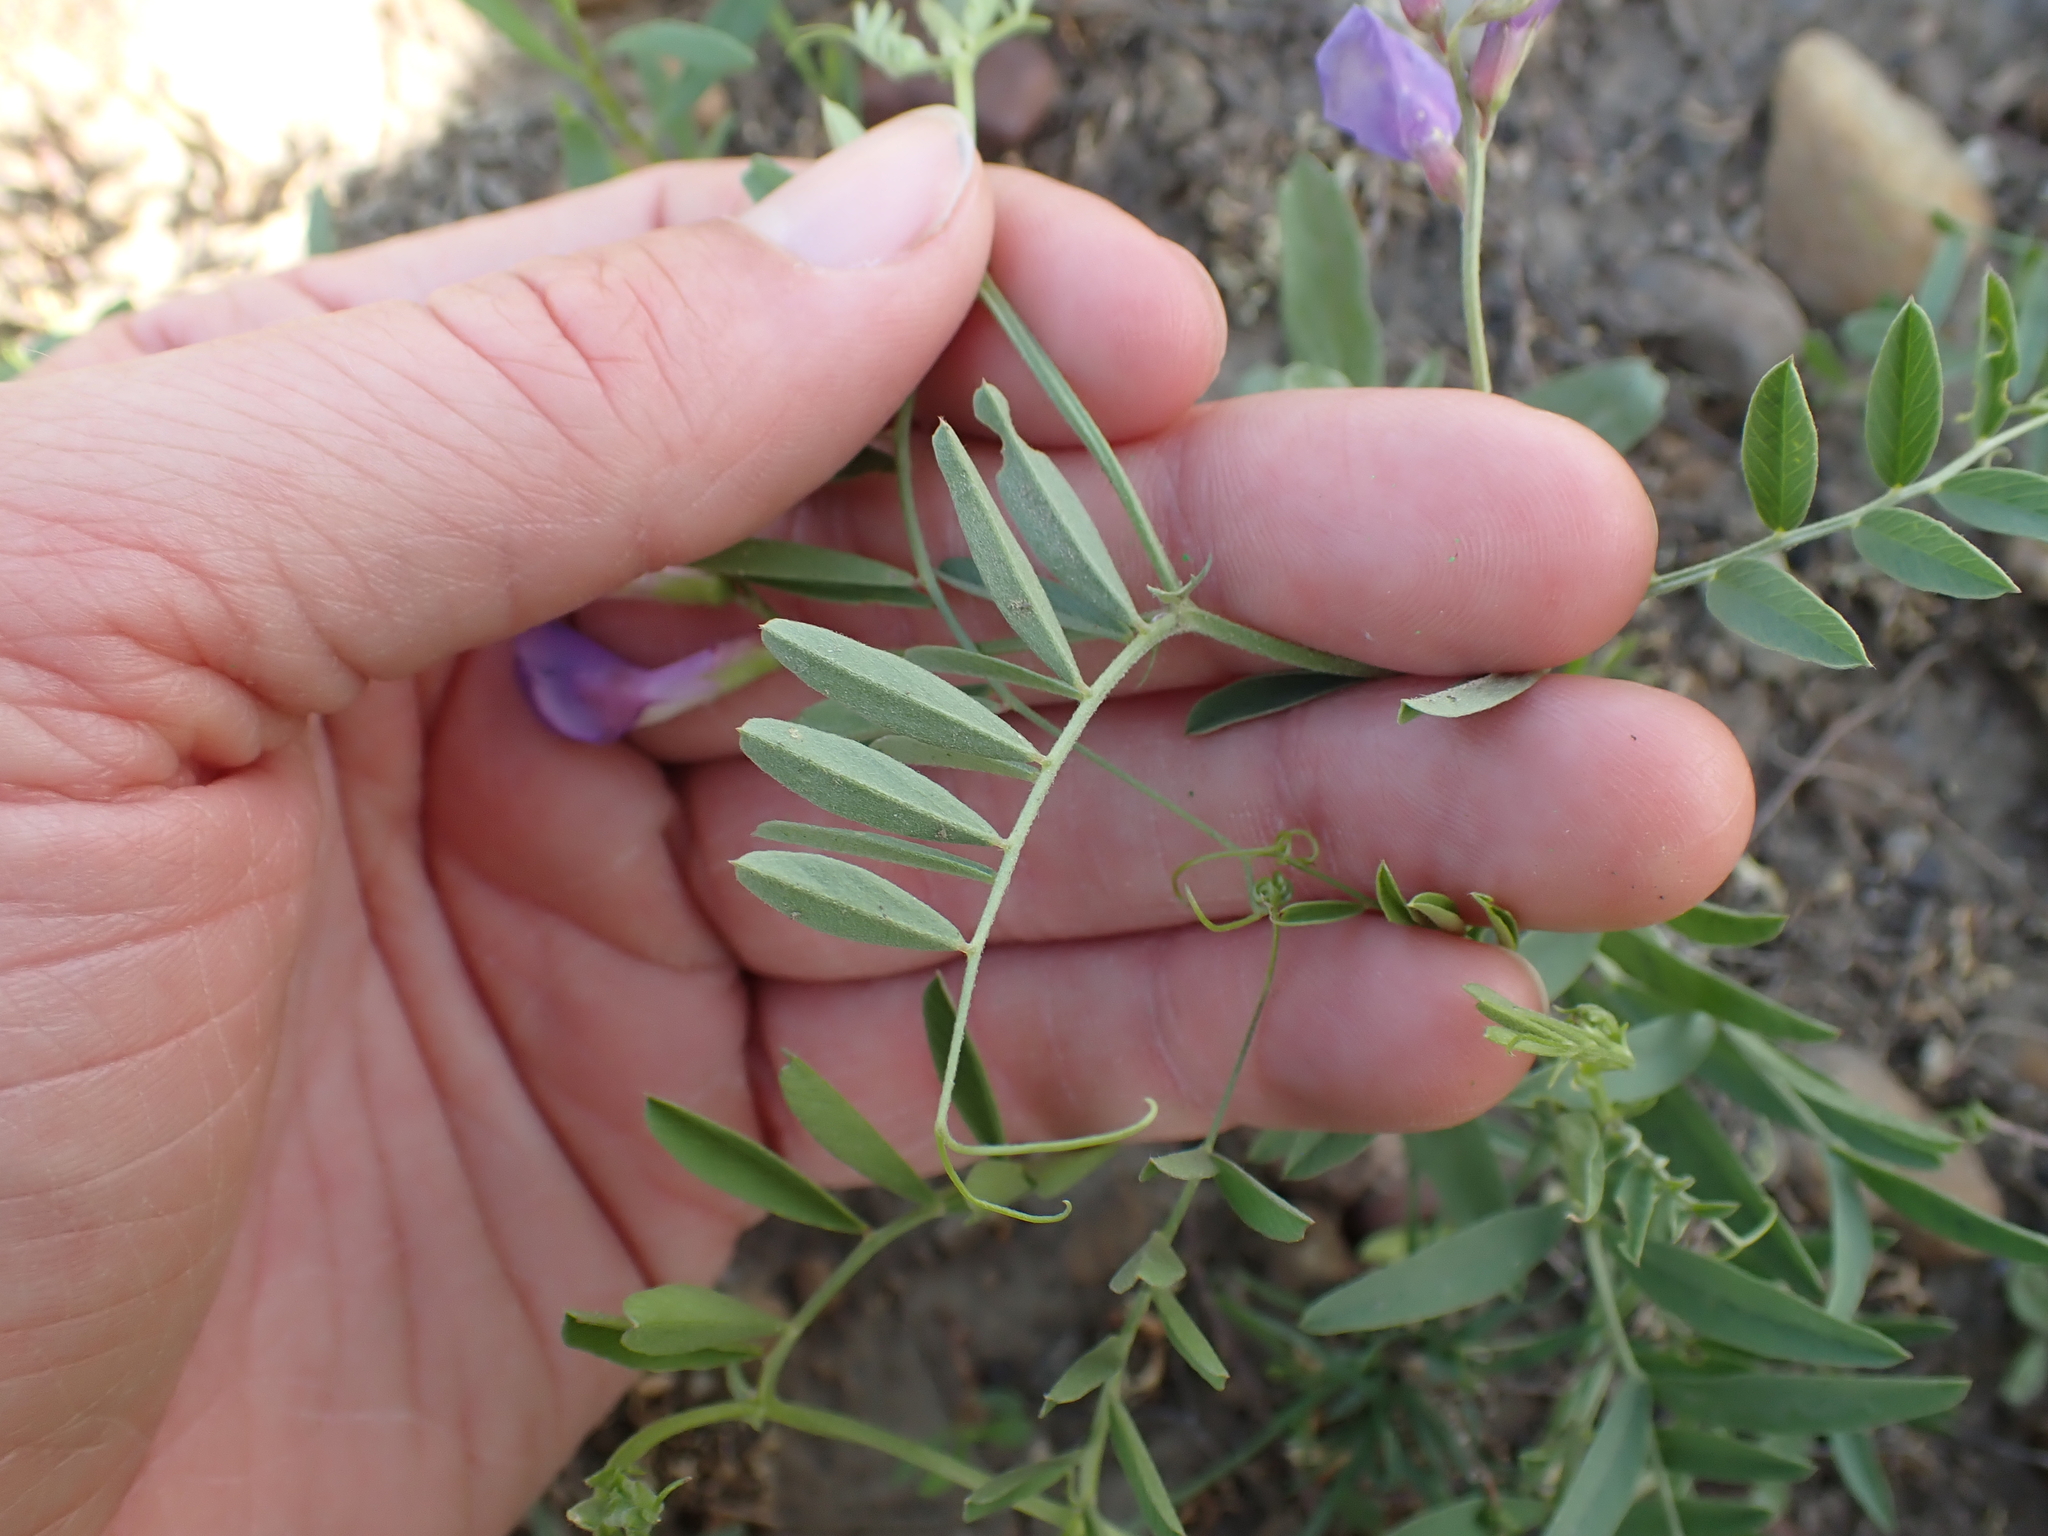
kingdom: Plantae
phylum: Tracheophyta
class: Magnoliopsida
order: Fabales
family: Fabaceae
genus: Vicia
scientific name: Vicia americana
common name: American vetch
